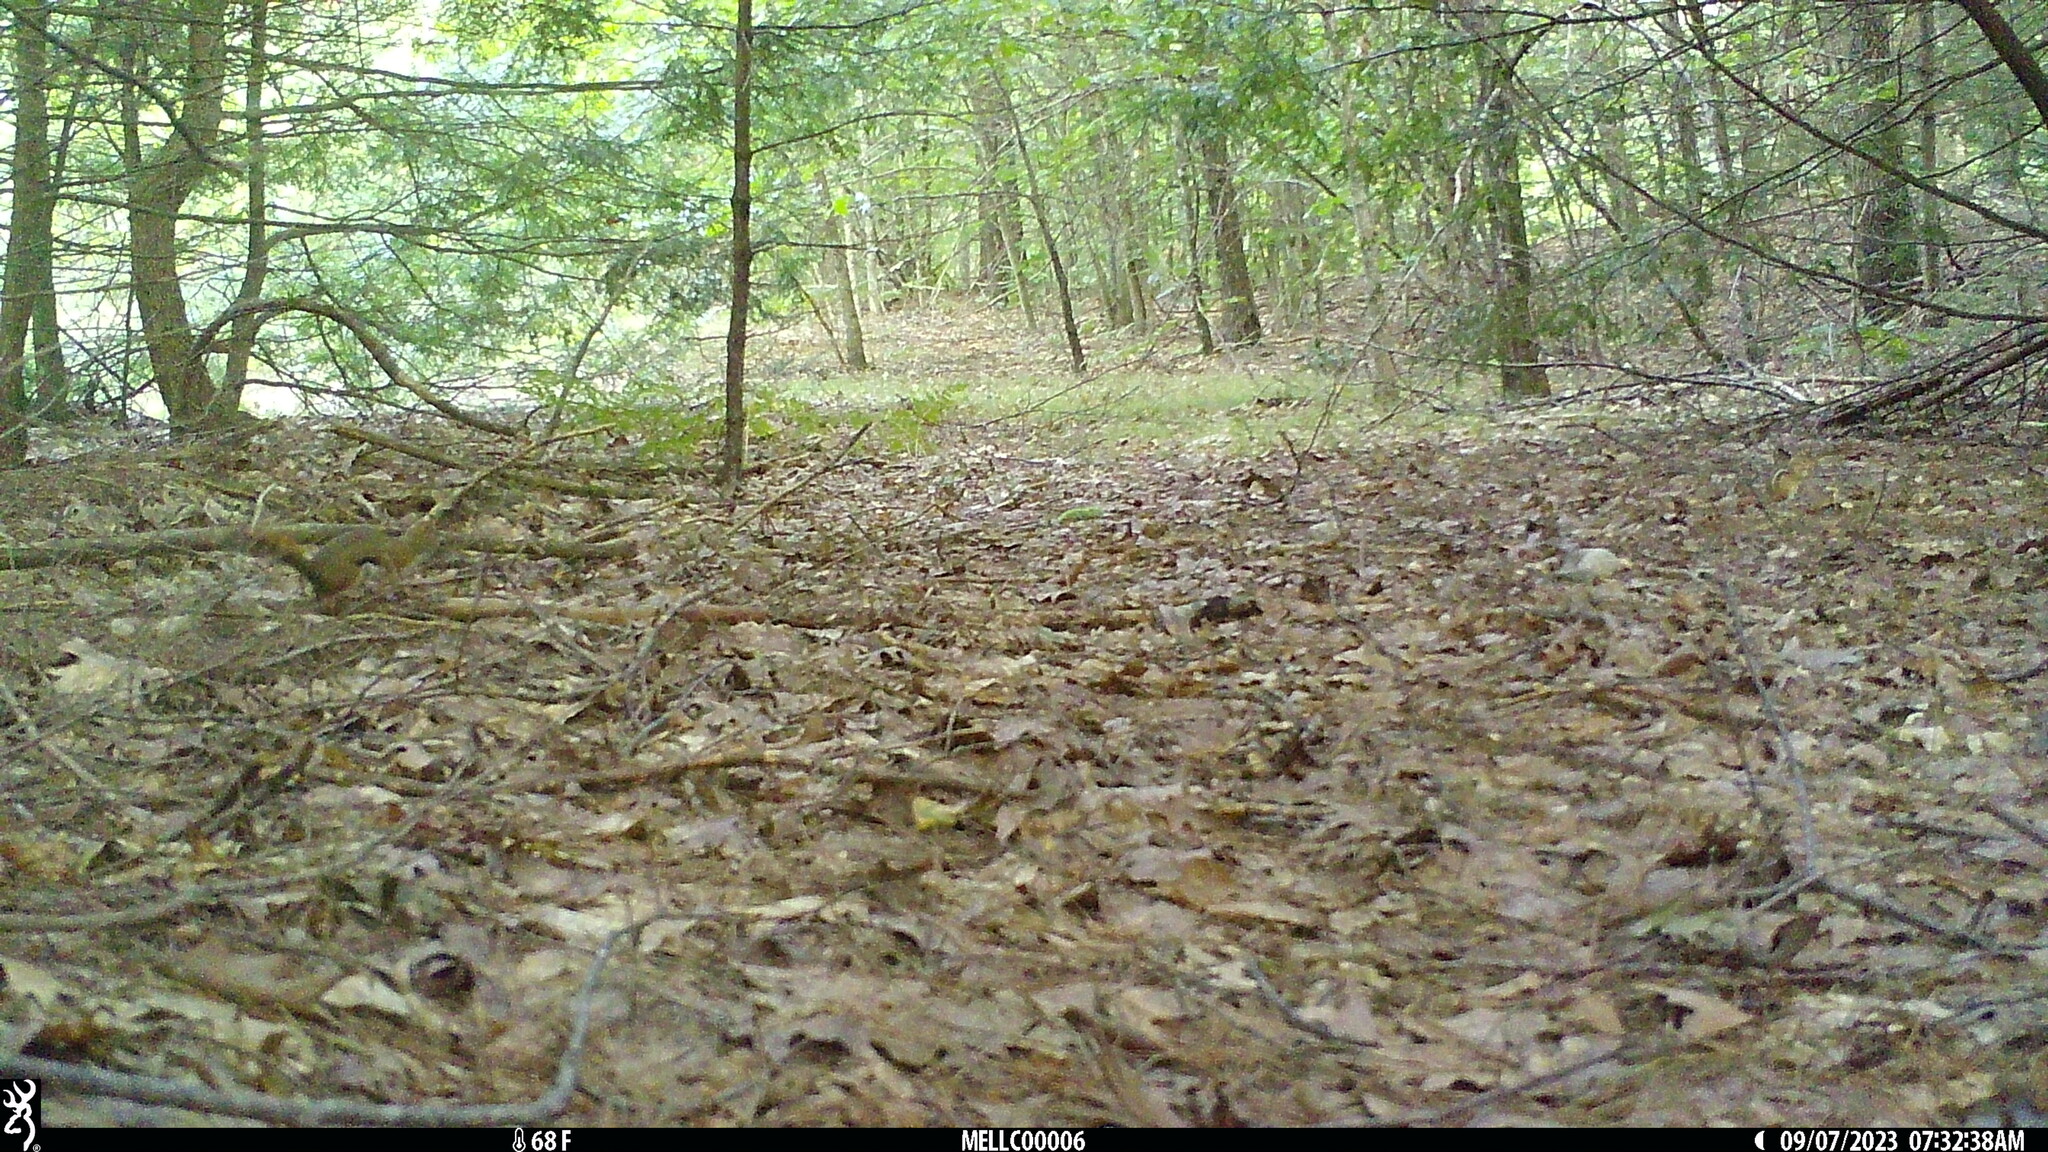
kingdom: Animalia
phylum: Chordata
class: Mammalia
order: Rodentia
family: Sciuridae
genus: Tamiasciurus
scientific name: Tamiasciurus hudsonicus
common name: Red squirrel
